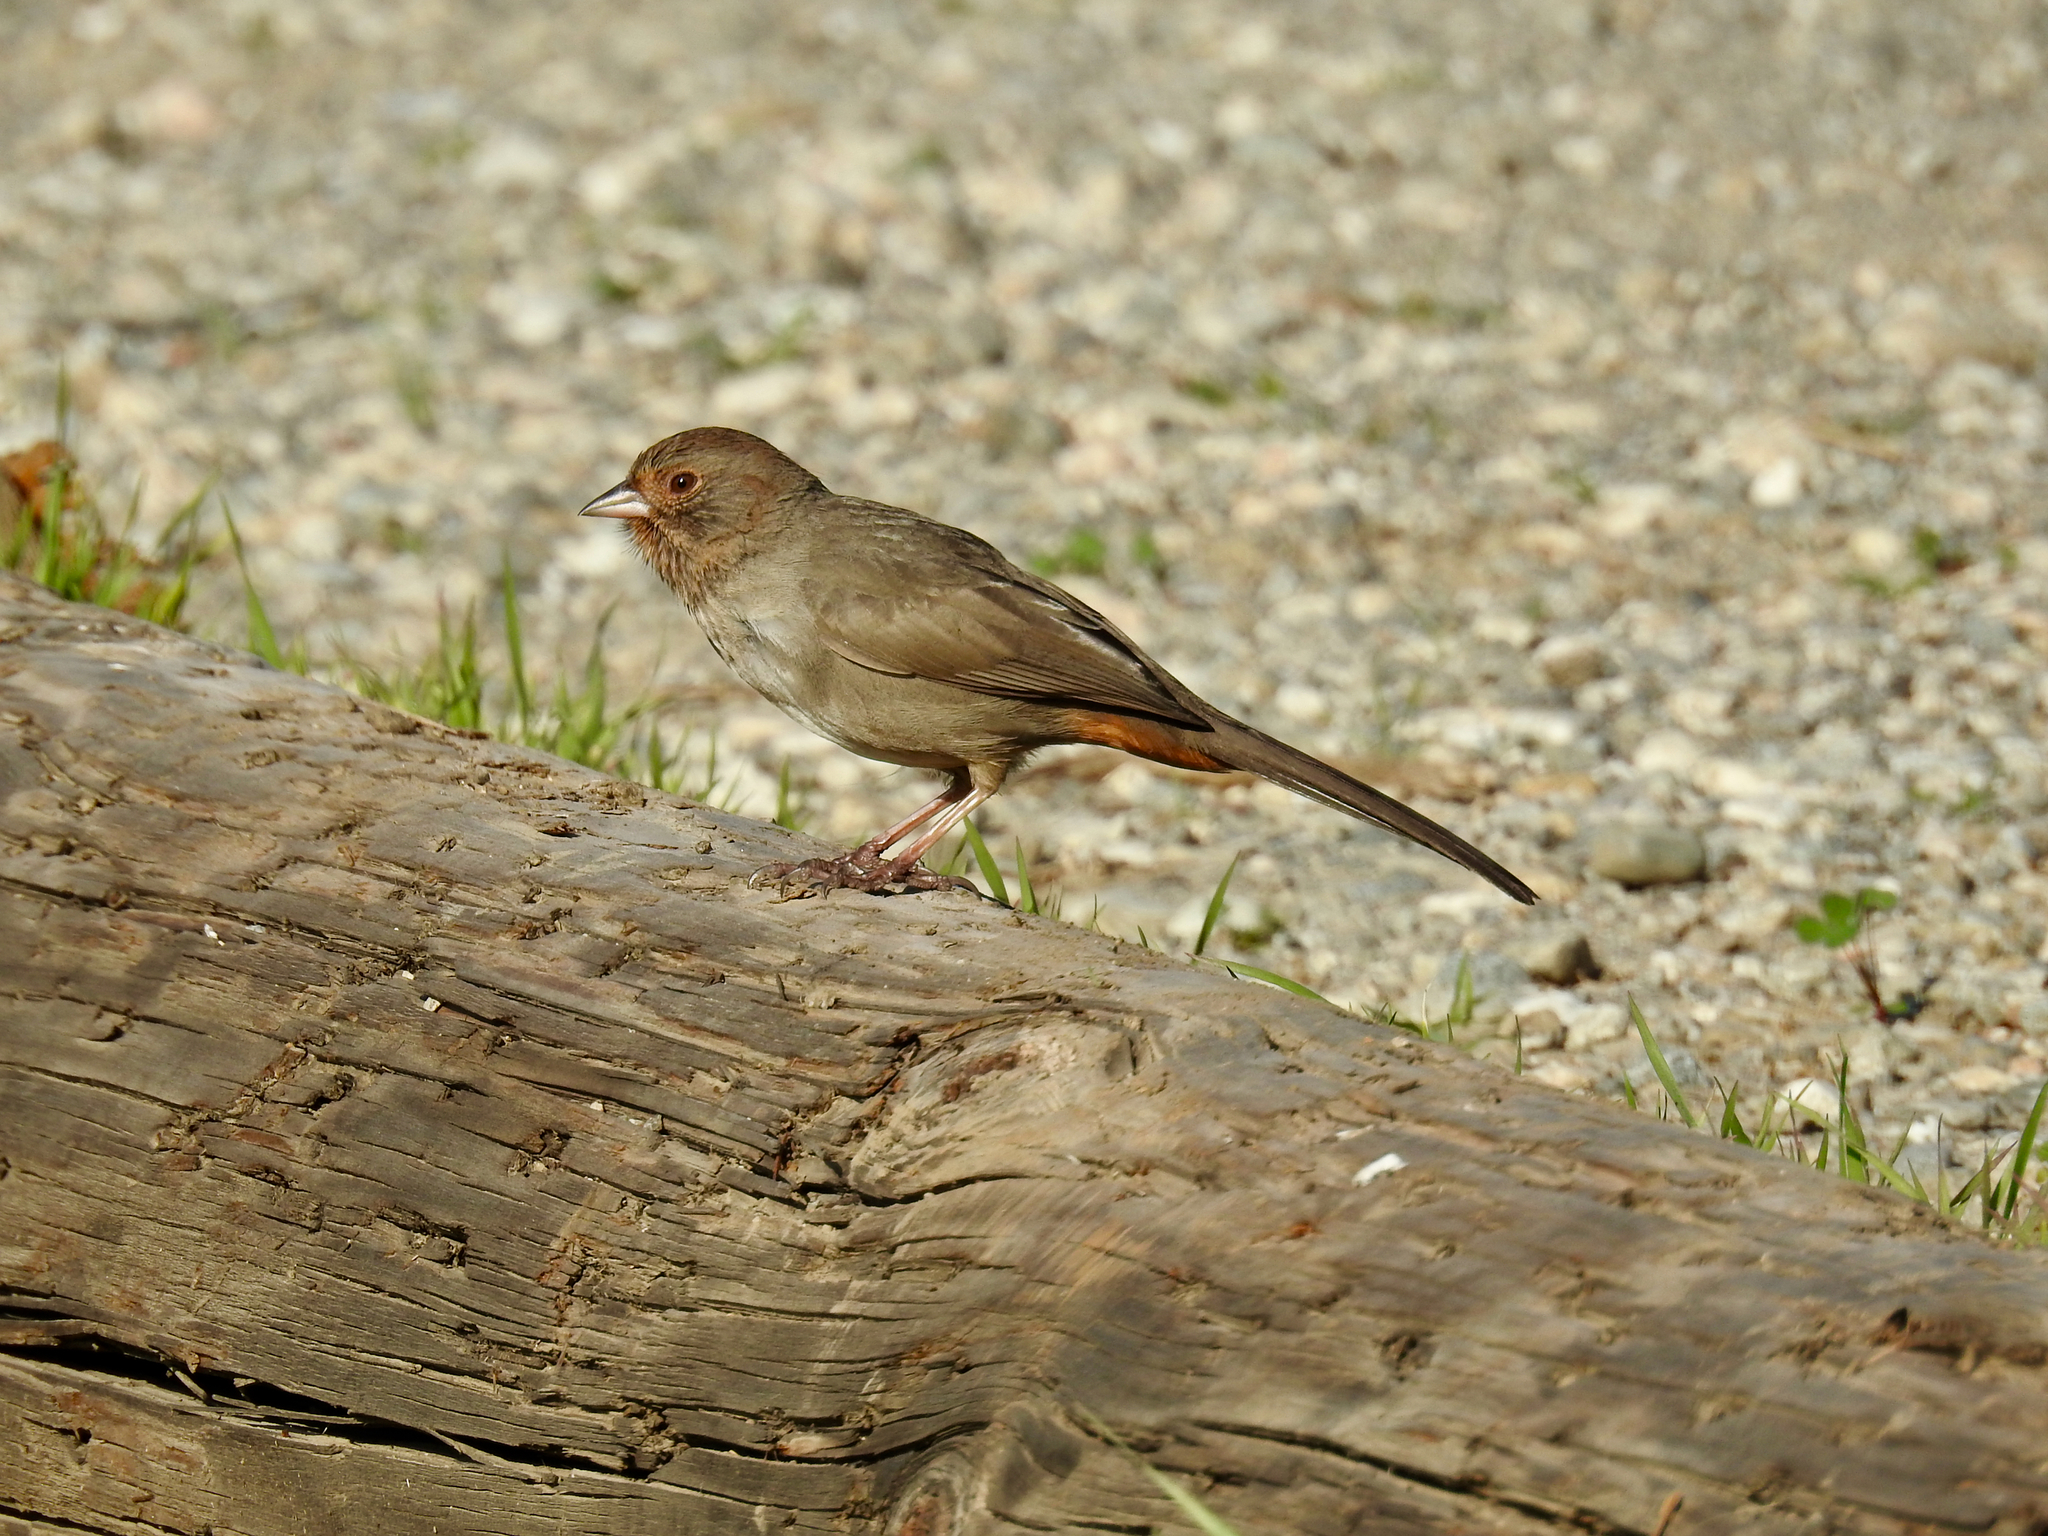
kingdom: Animalia
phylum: Chordata
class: Aves
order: Passeriformes
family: Passerellidae
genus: Melozone
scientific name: Melozone crissalis
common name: California towhee
